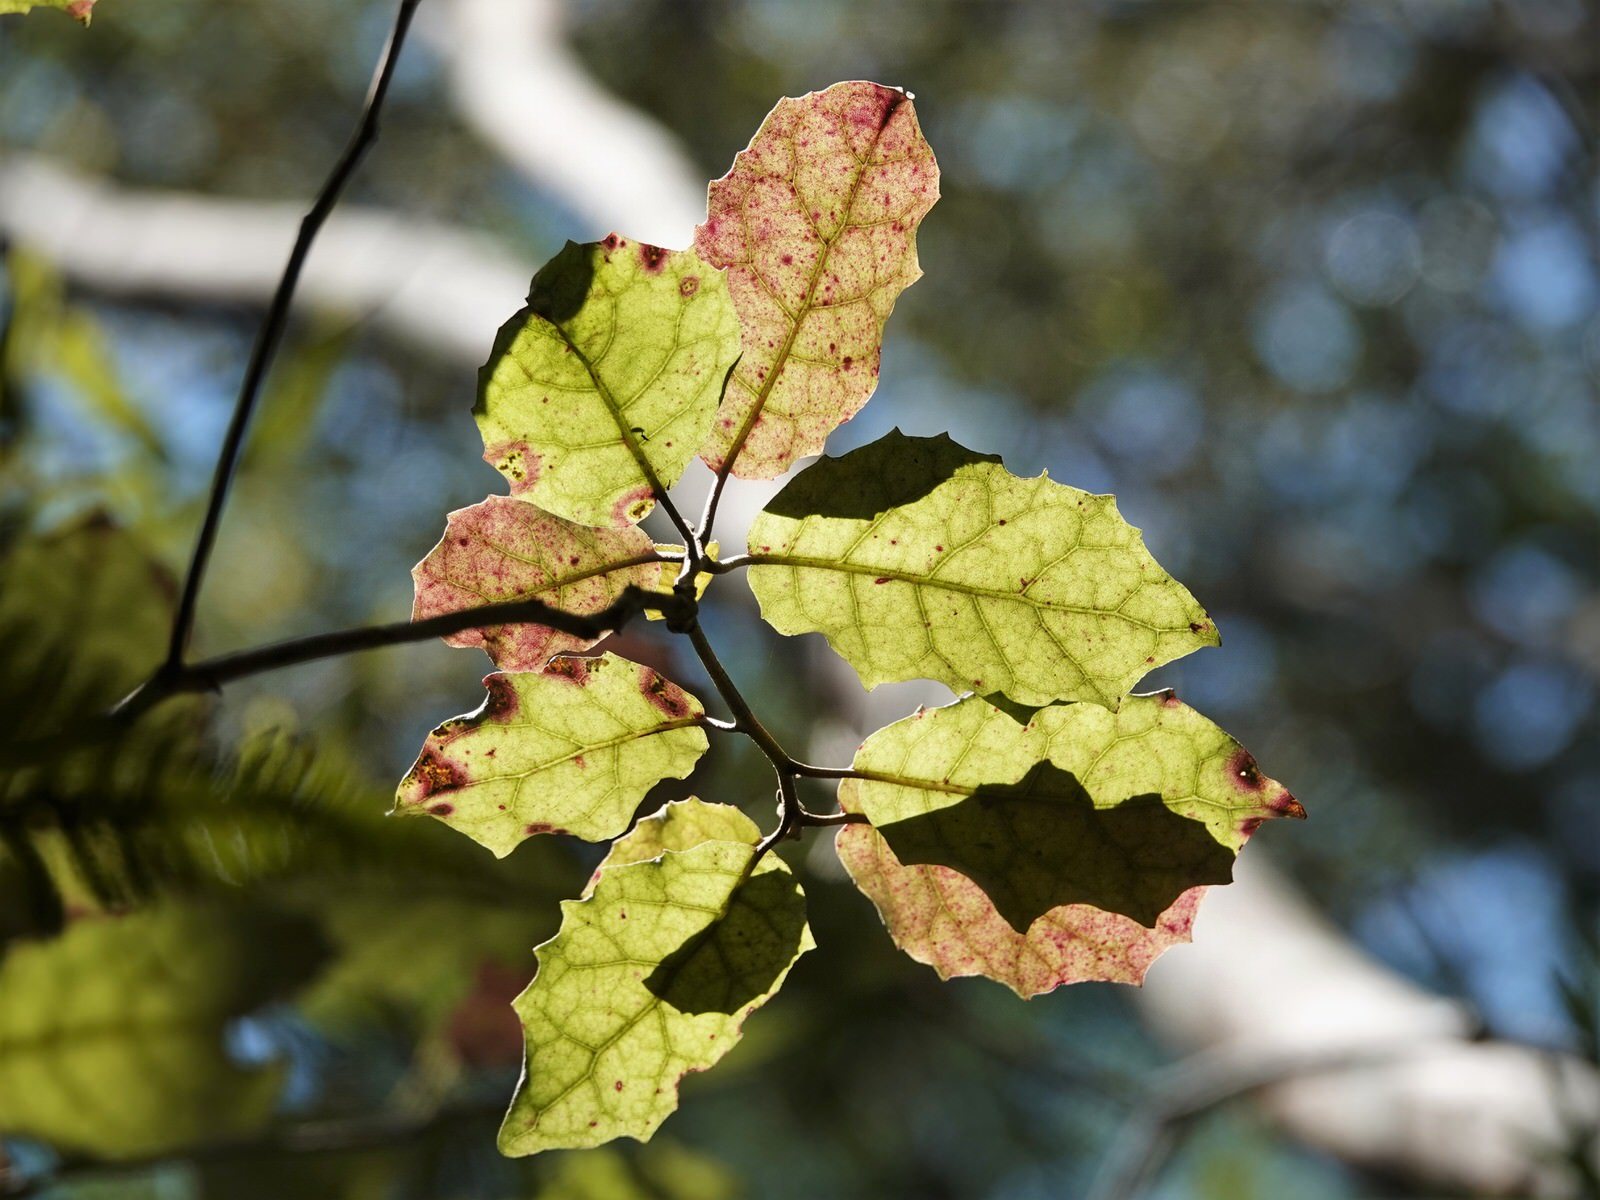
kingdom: Plantae
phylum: Tracheophyta
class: Magnoliopsida
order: Asterales
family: Asteraceae
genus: Olearia
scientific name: Olearia rani
